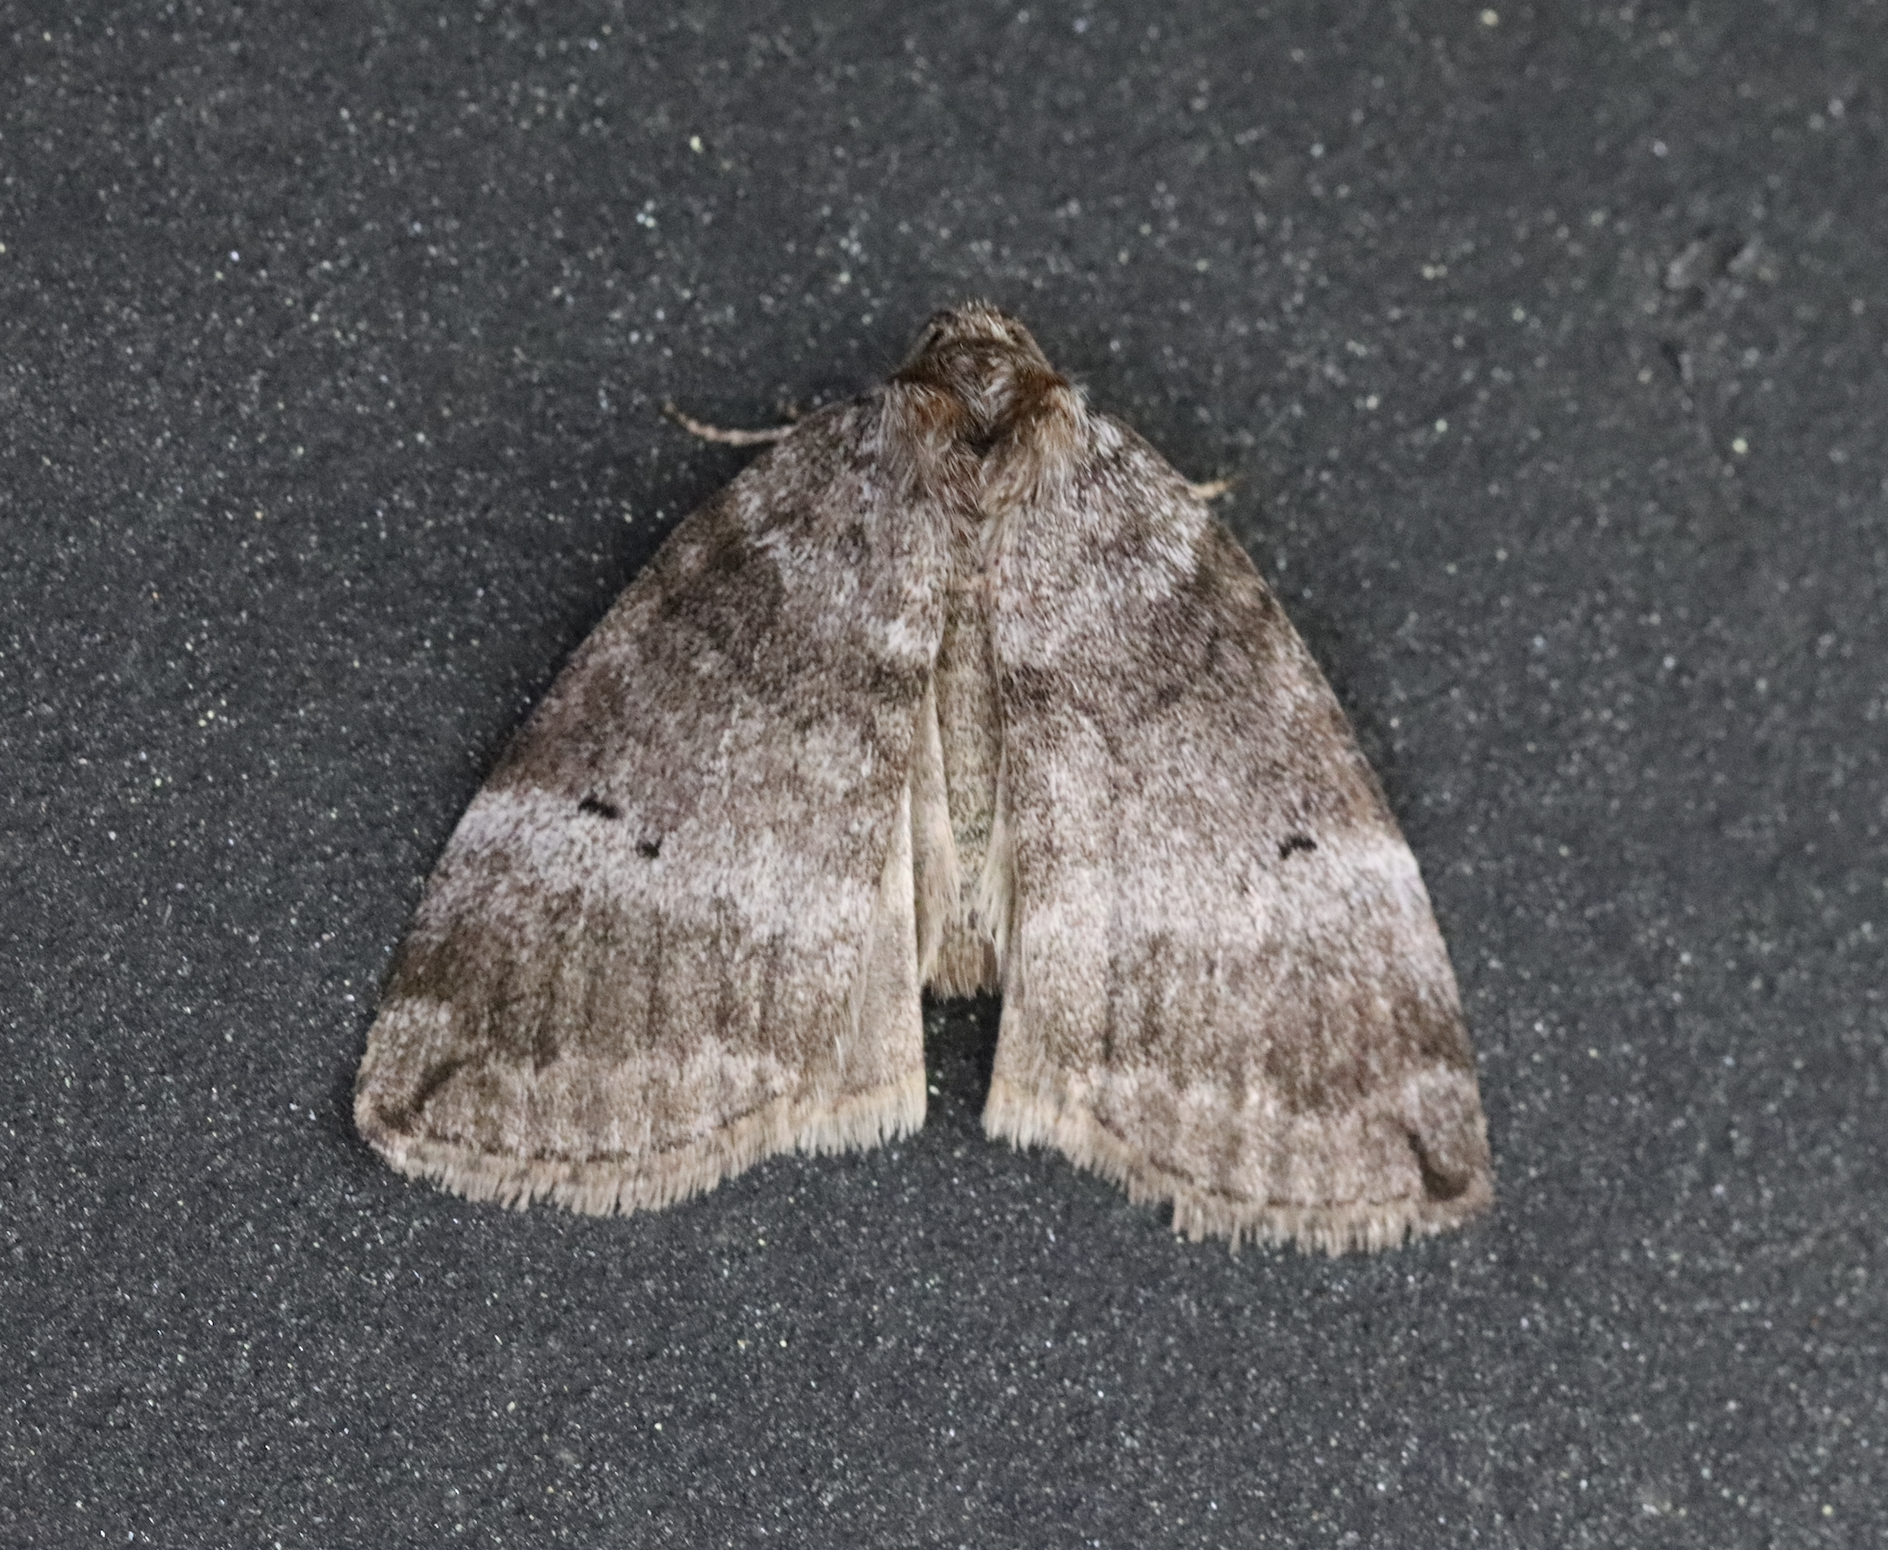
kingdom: Animalia
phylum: Arthropoda
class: Insecta
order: Lepidoptera
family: Drepanidae
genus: Ochropacha
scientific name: Ochropacha duplaris
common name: Common lutestring
